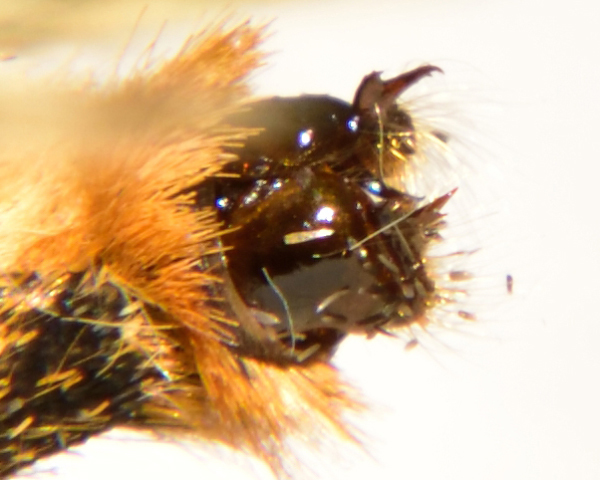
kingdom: Animalia
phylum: Arthropoda
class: Insecta
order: Lepidoptera
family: Nymphalidae
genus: Melitaea
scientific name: Melitaea athalia
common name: Heath fritillary
